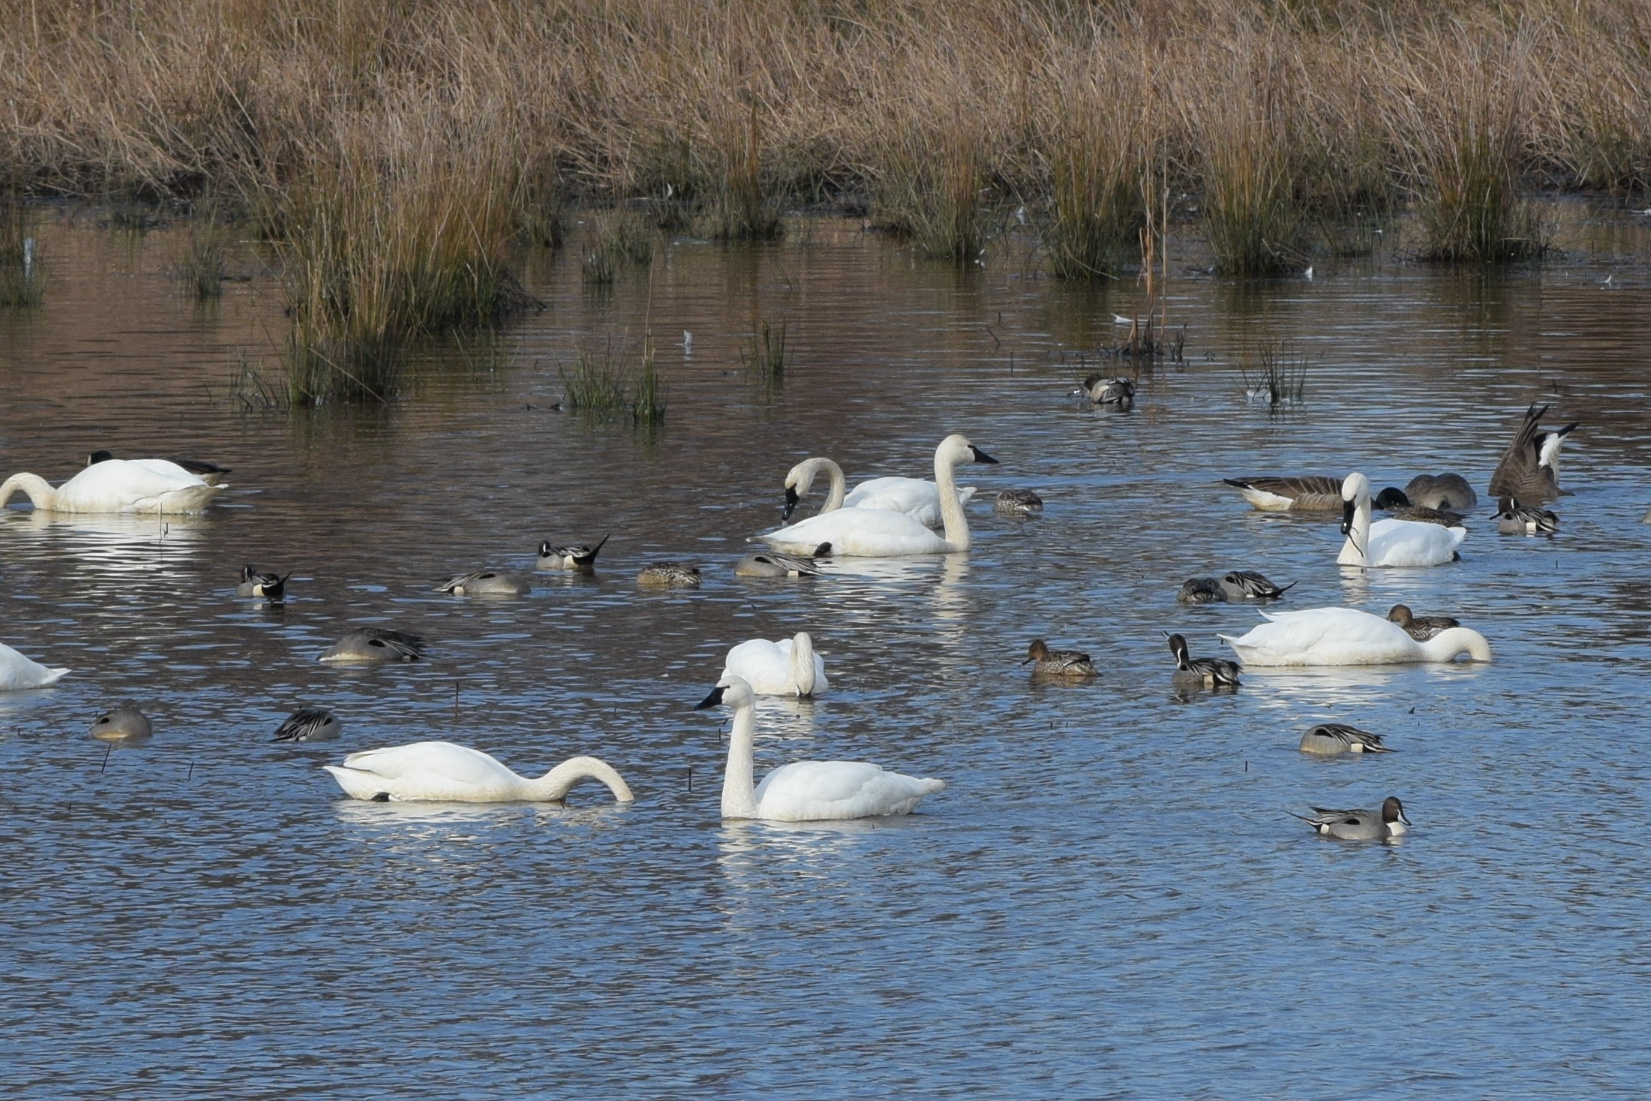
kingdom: Animalia
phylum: Chordata
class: Aves
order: Anseriformes
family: Anatidae
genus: Cygnus
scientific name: Cygnus columbianus
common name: Tundra swan
